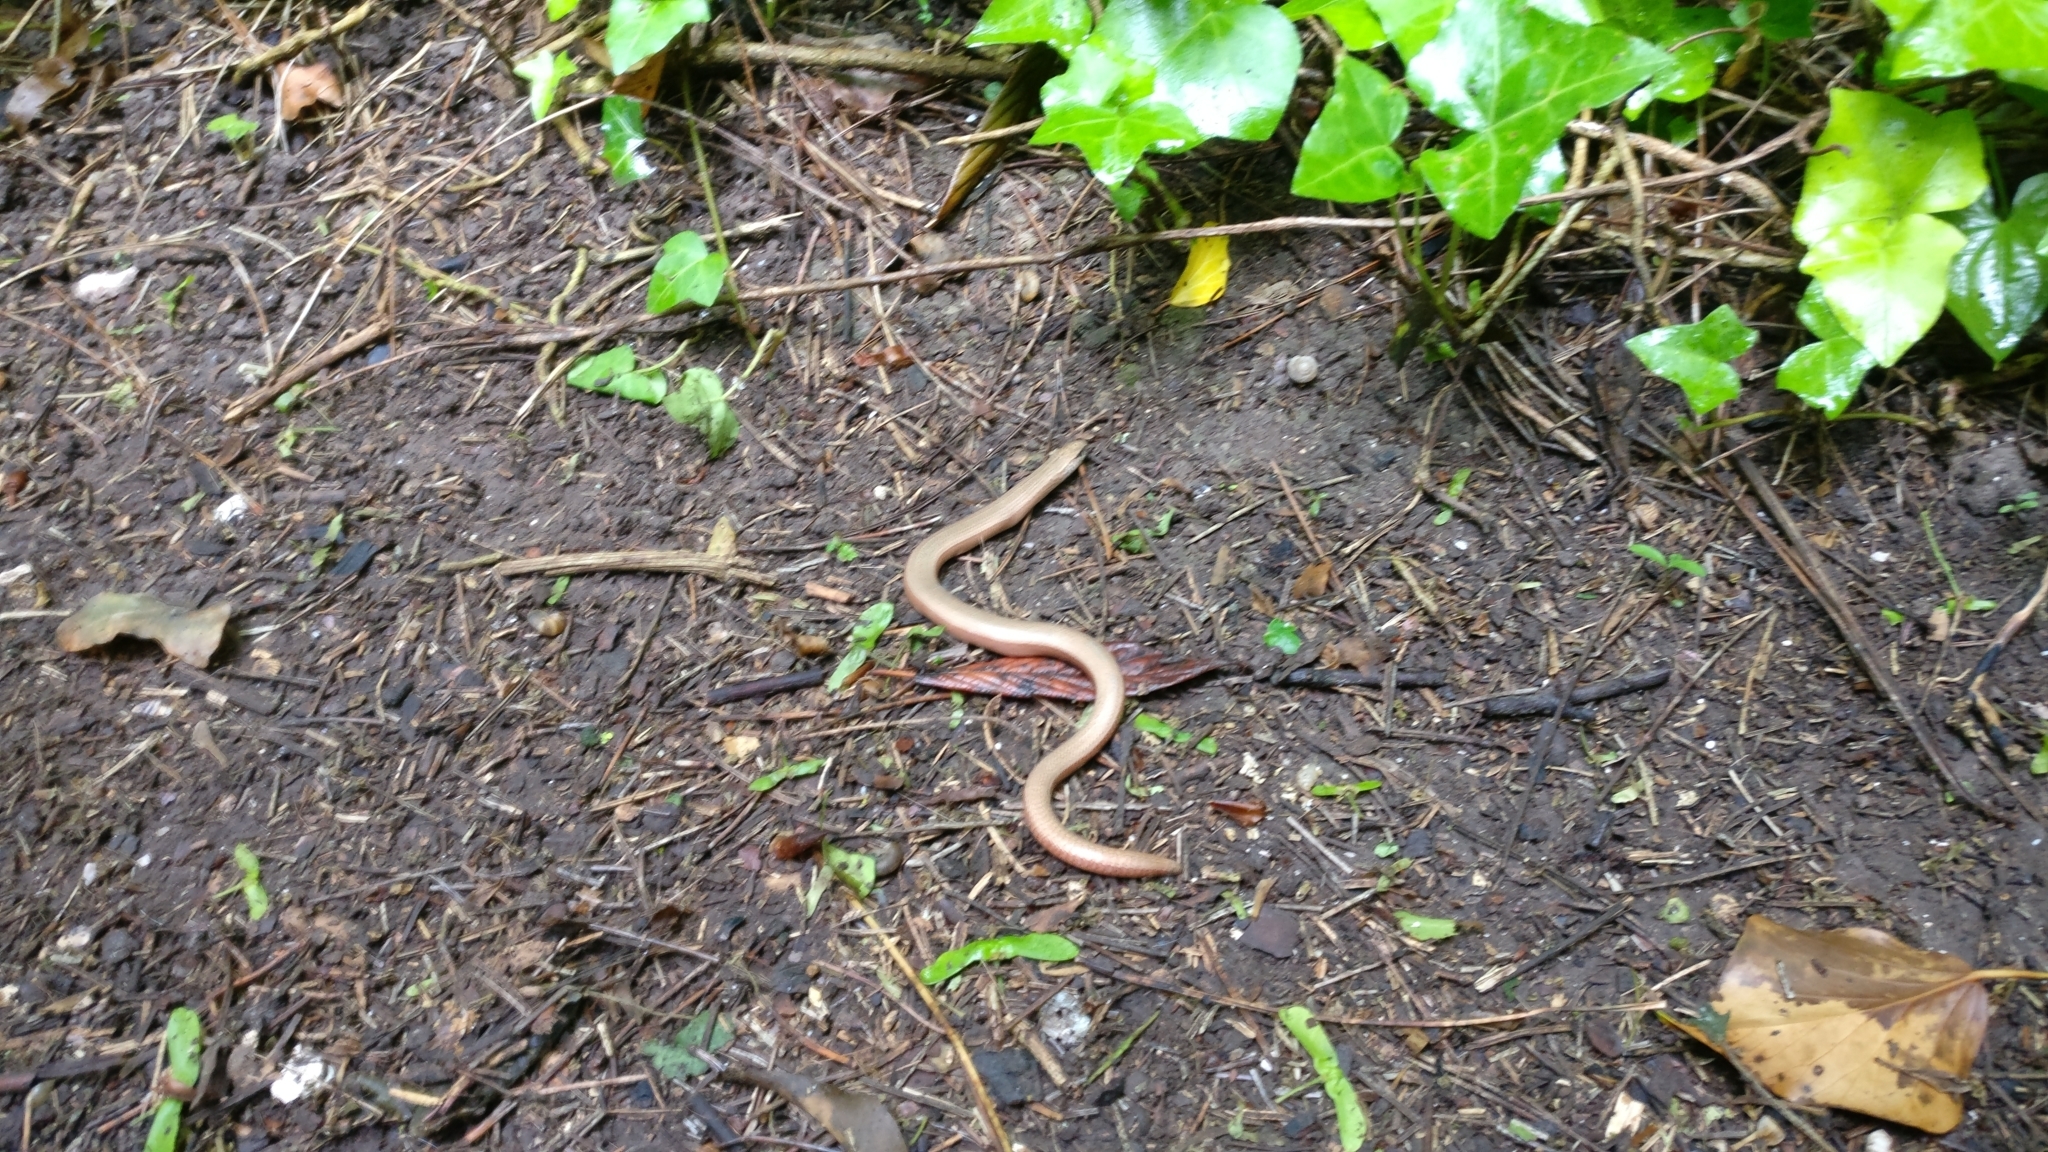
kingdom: Animalia
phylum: Chordata
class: Squamata
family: Anguidae
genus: Anguis
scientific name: Anguis fragilis
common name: Slow worm
